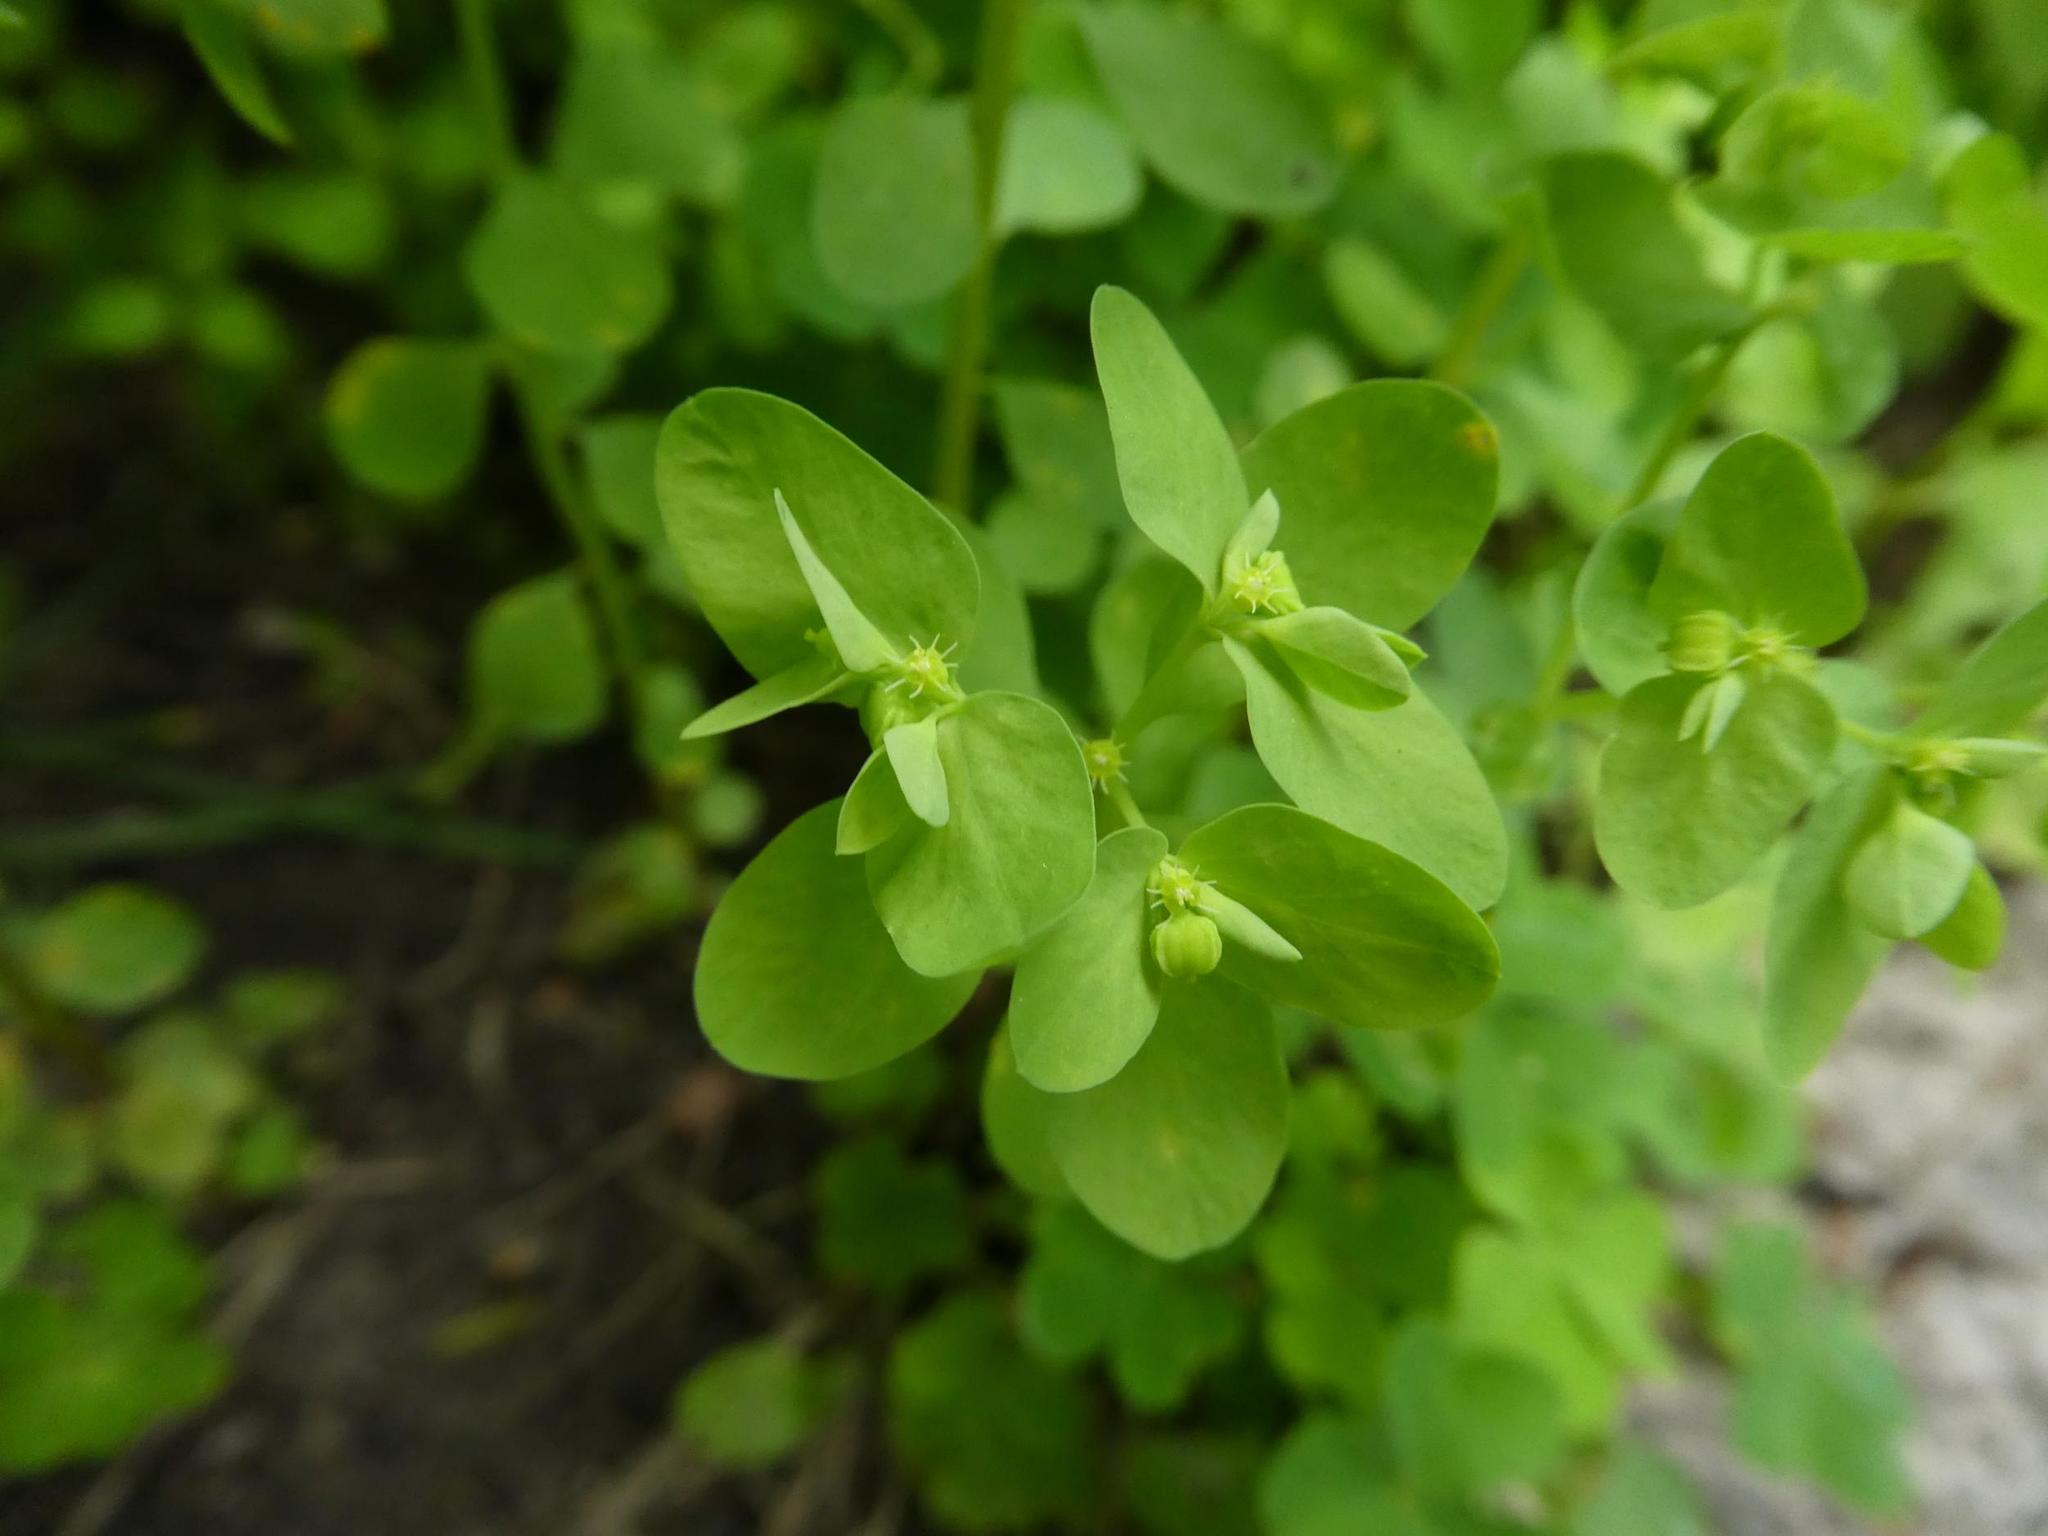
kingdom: Plantae
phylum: Tracheophyta
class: Magnoliopsida
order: Malpighiales
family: Euphorbiaceae
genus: Euphorbia
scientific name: Euphorbia peplus
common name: Petty spurge
